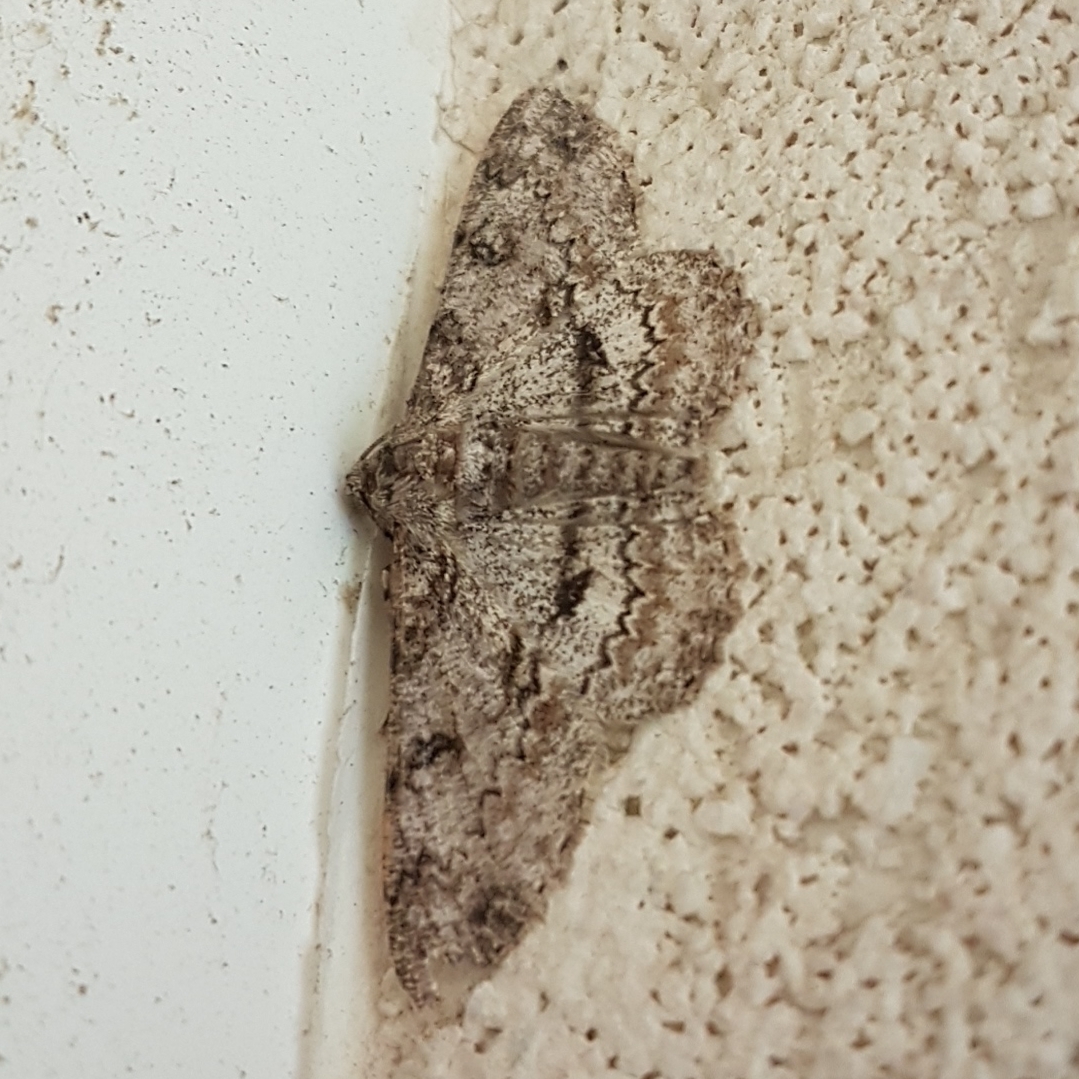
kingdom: Animalia
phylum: Arthropoda
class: Insecta
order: Lepidoptera
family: Geometridae
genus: Ascotis
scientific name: Ascotis selenaria
